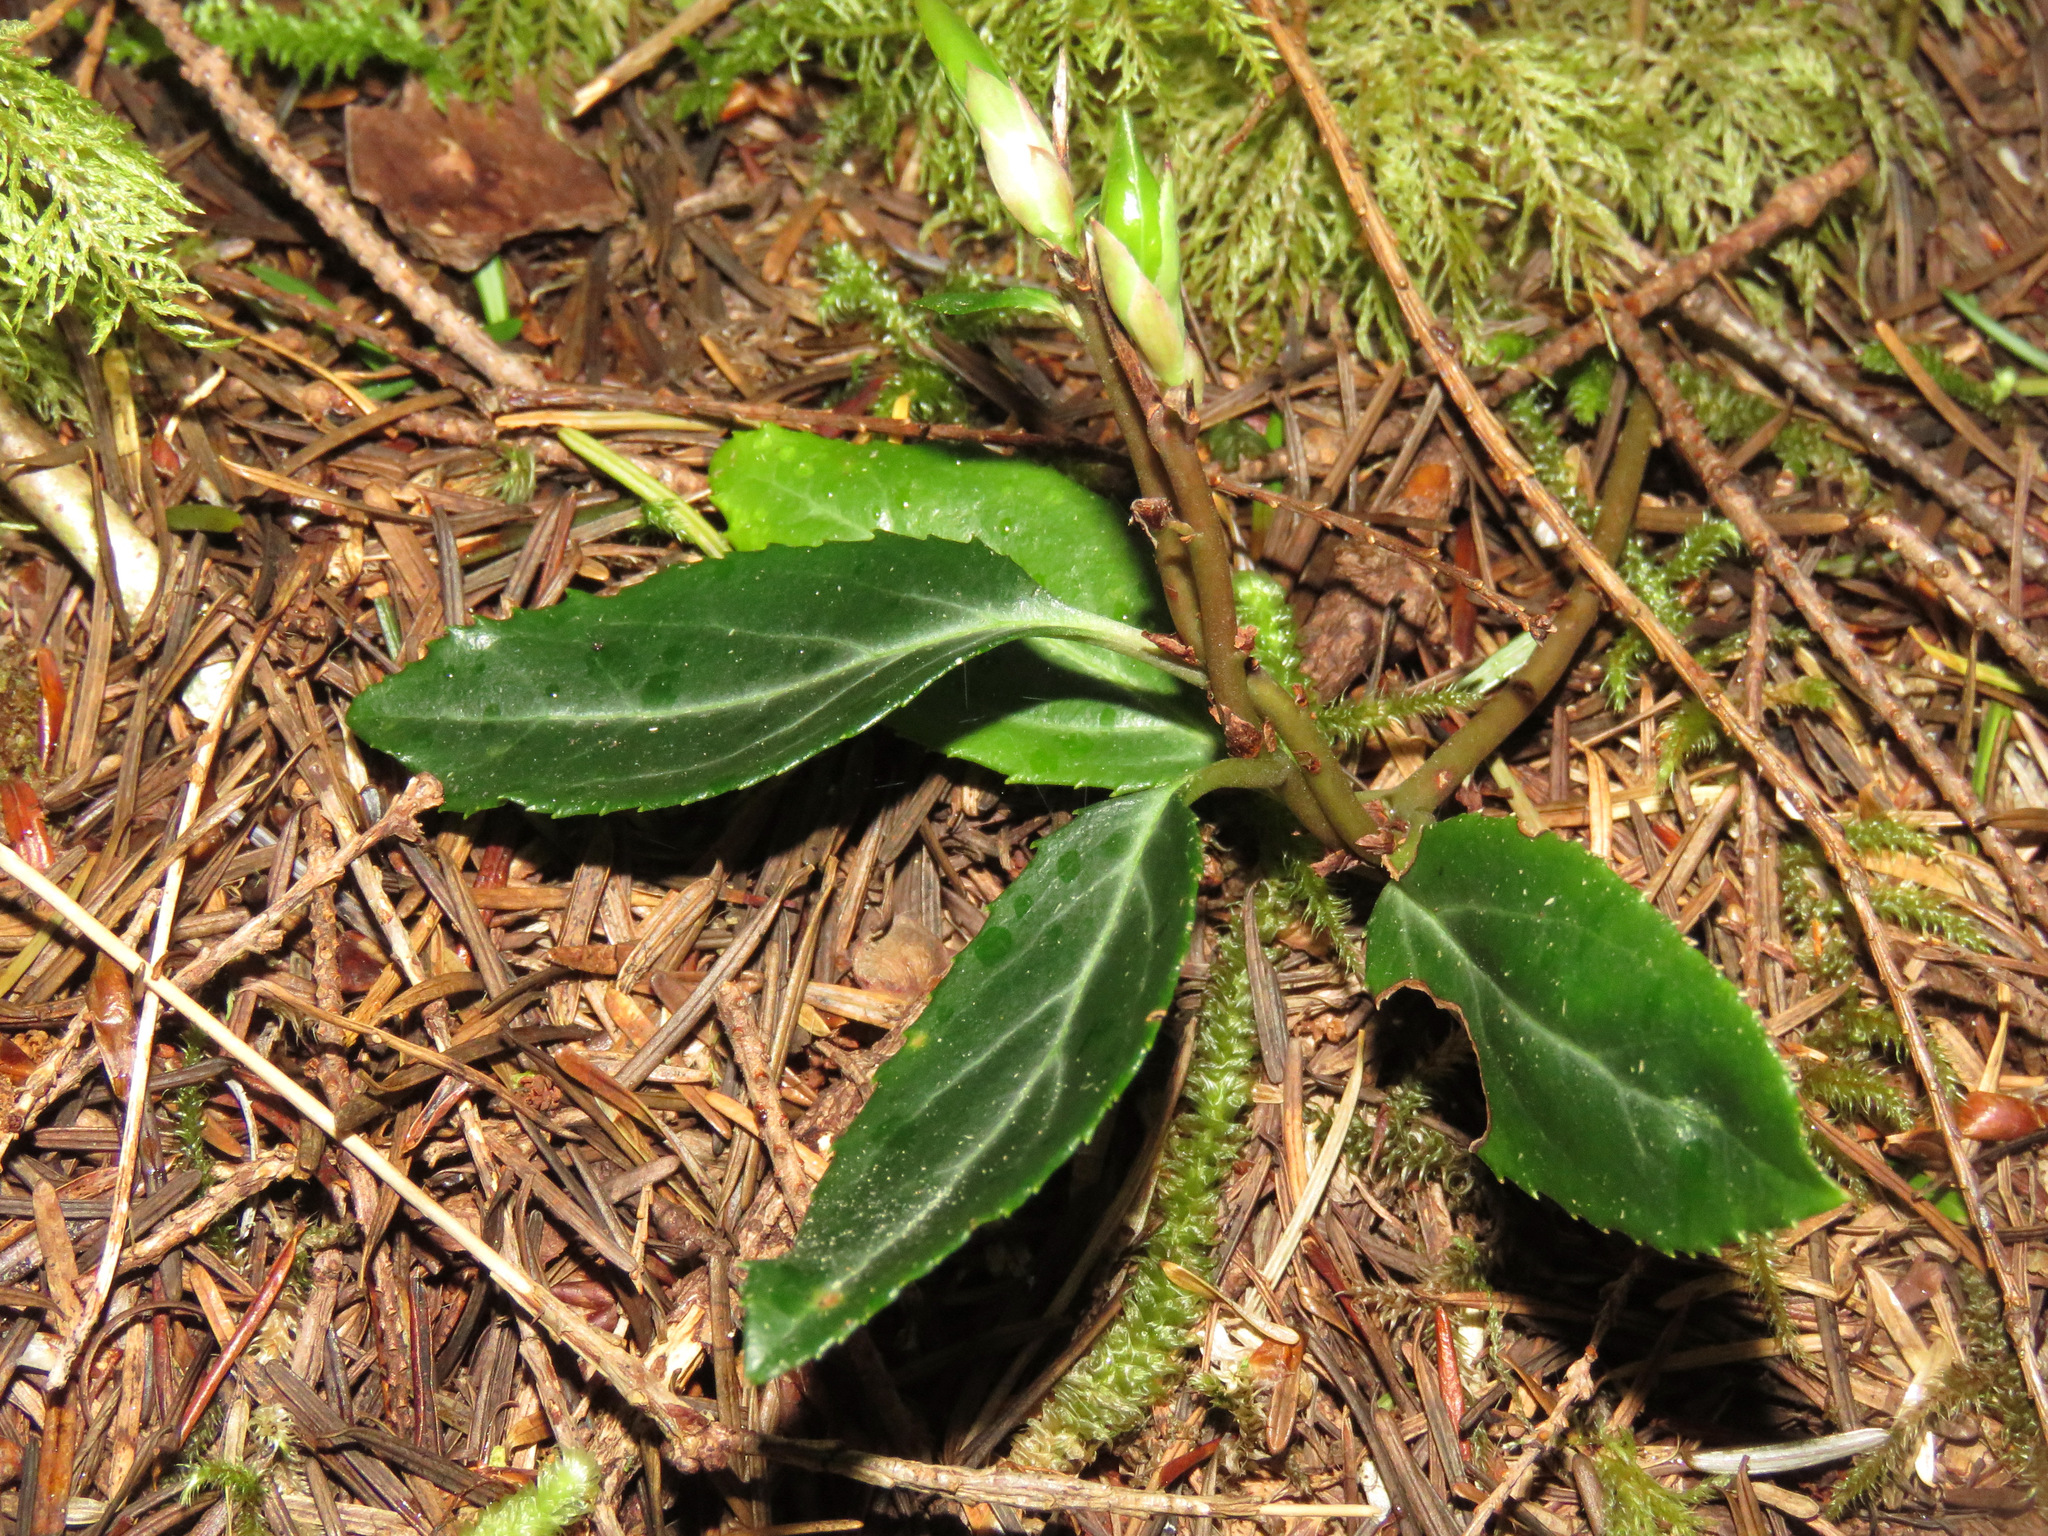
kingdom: Plantae
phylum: Tracheophyta
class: Magnoliopsida
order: Ericales
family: Ericaceae
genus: Chimaphila
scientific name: Chimaphila menziesii
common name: Menzies' pipsissewa
